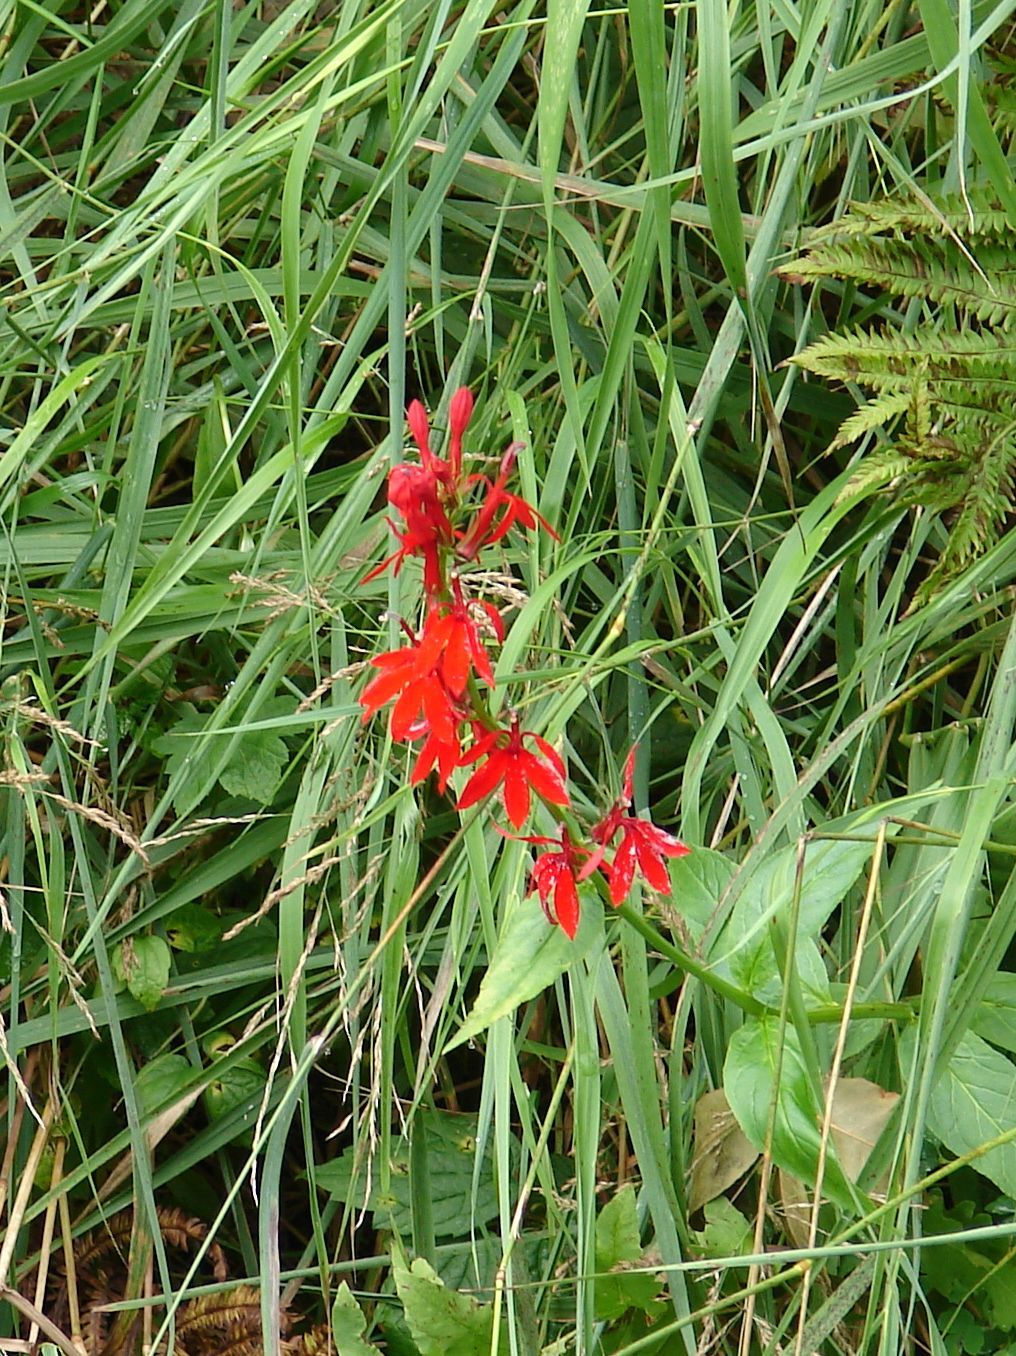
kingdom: Plantae
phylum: Tracheophyta
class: Magnoliopsida
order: Asterales
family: Campanulaceae
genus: Lobelia
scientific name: Lobelia cardinalis
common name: Cardinal flower
